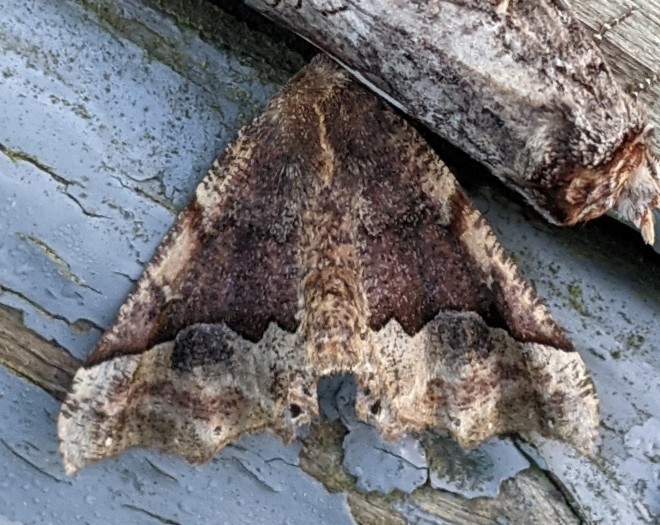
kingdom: Animalia
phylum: Arthropoda
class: Insecta
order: Lepidoptera
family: Geometridae
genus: Pero
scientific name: Pero morrisonaria
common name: Morrison's pero
